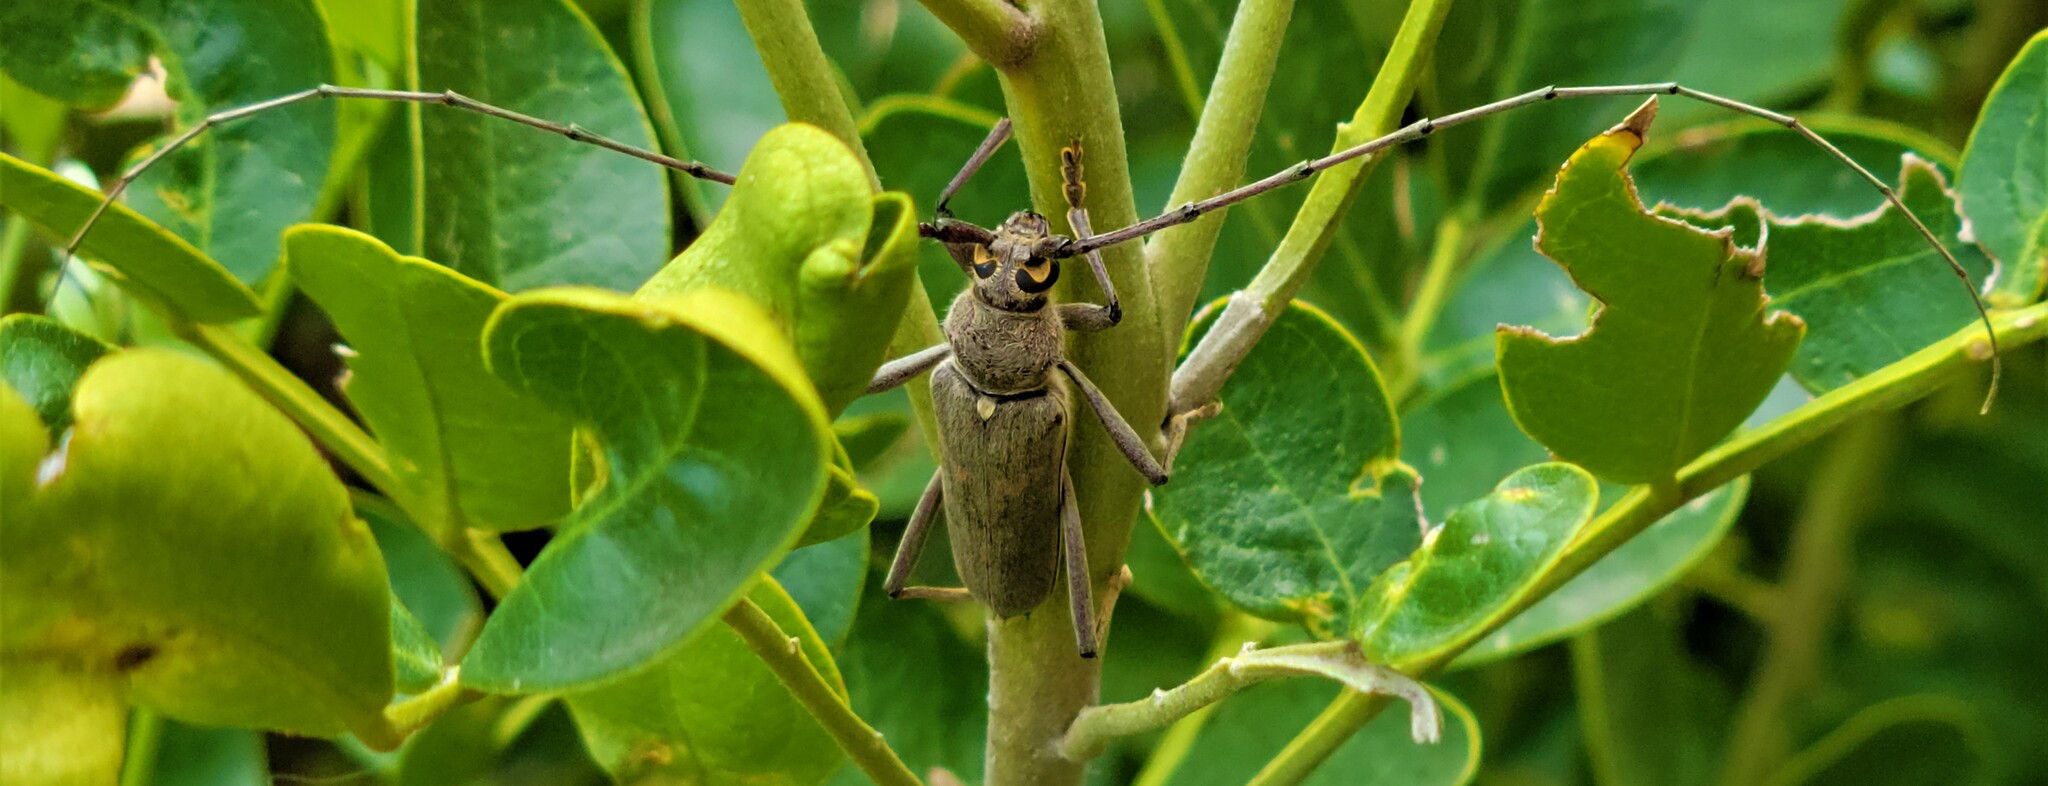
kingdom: Animalia
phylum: Arthropoda
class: Insecta
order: Coleoptera
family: Cerambycidae
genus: Knulliana
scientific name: Knulliana cincta
